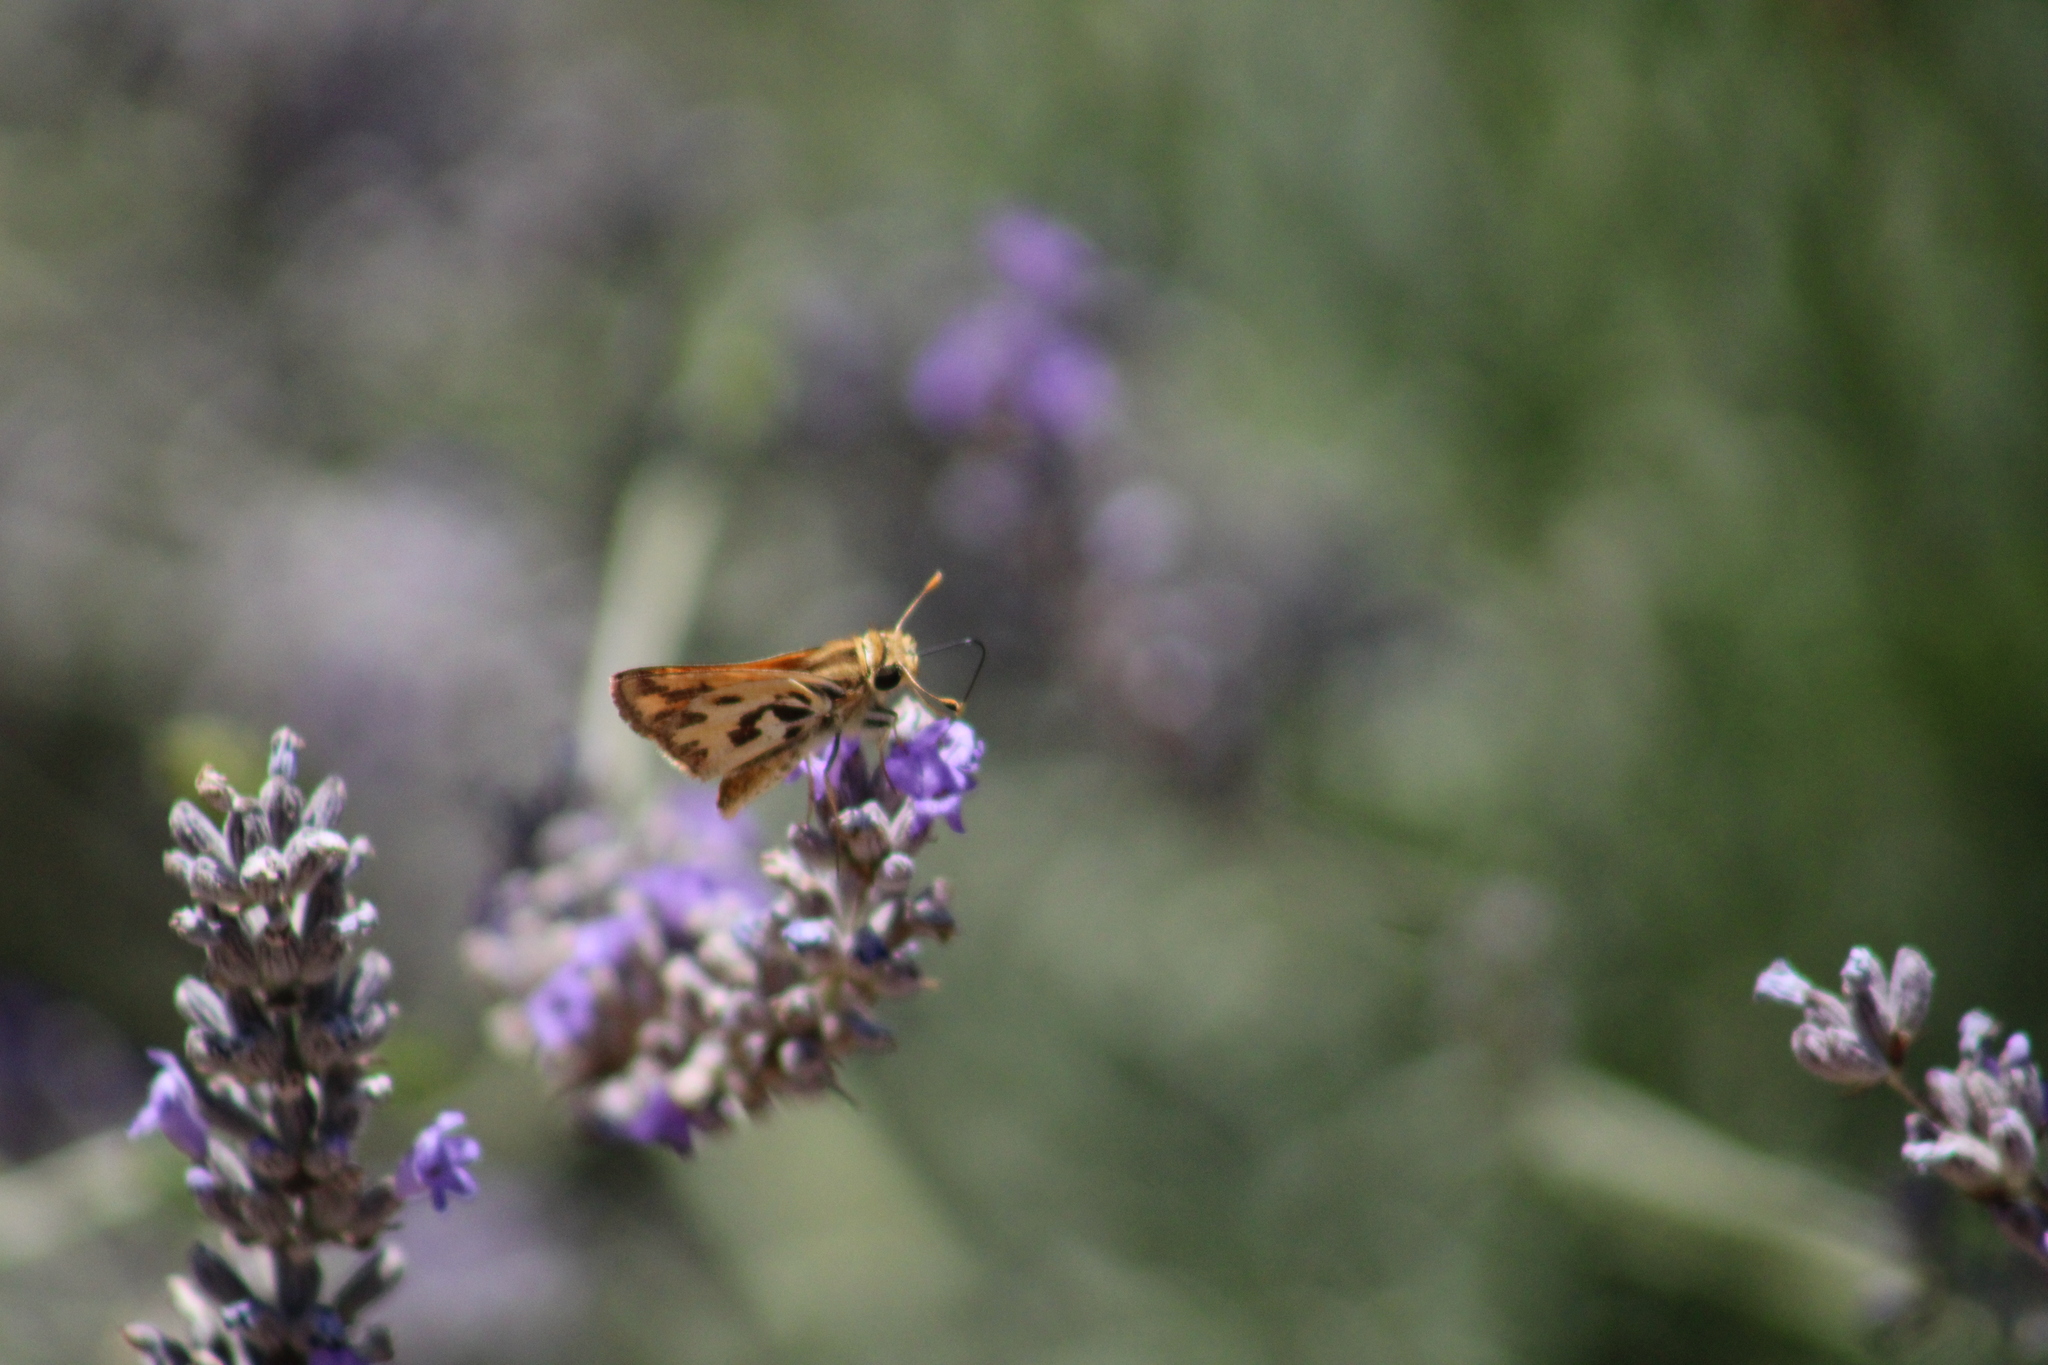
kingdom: Animalia
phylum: Arthropoda
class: Insecta
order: Lepidoptera
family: Hesperiidae
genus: Hylephila
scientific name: Hylephila fasciolata
